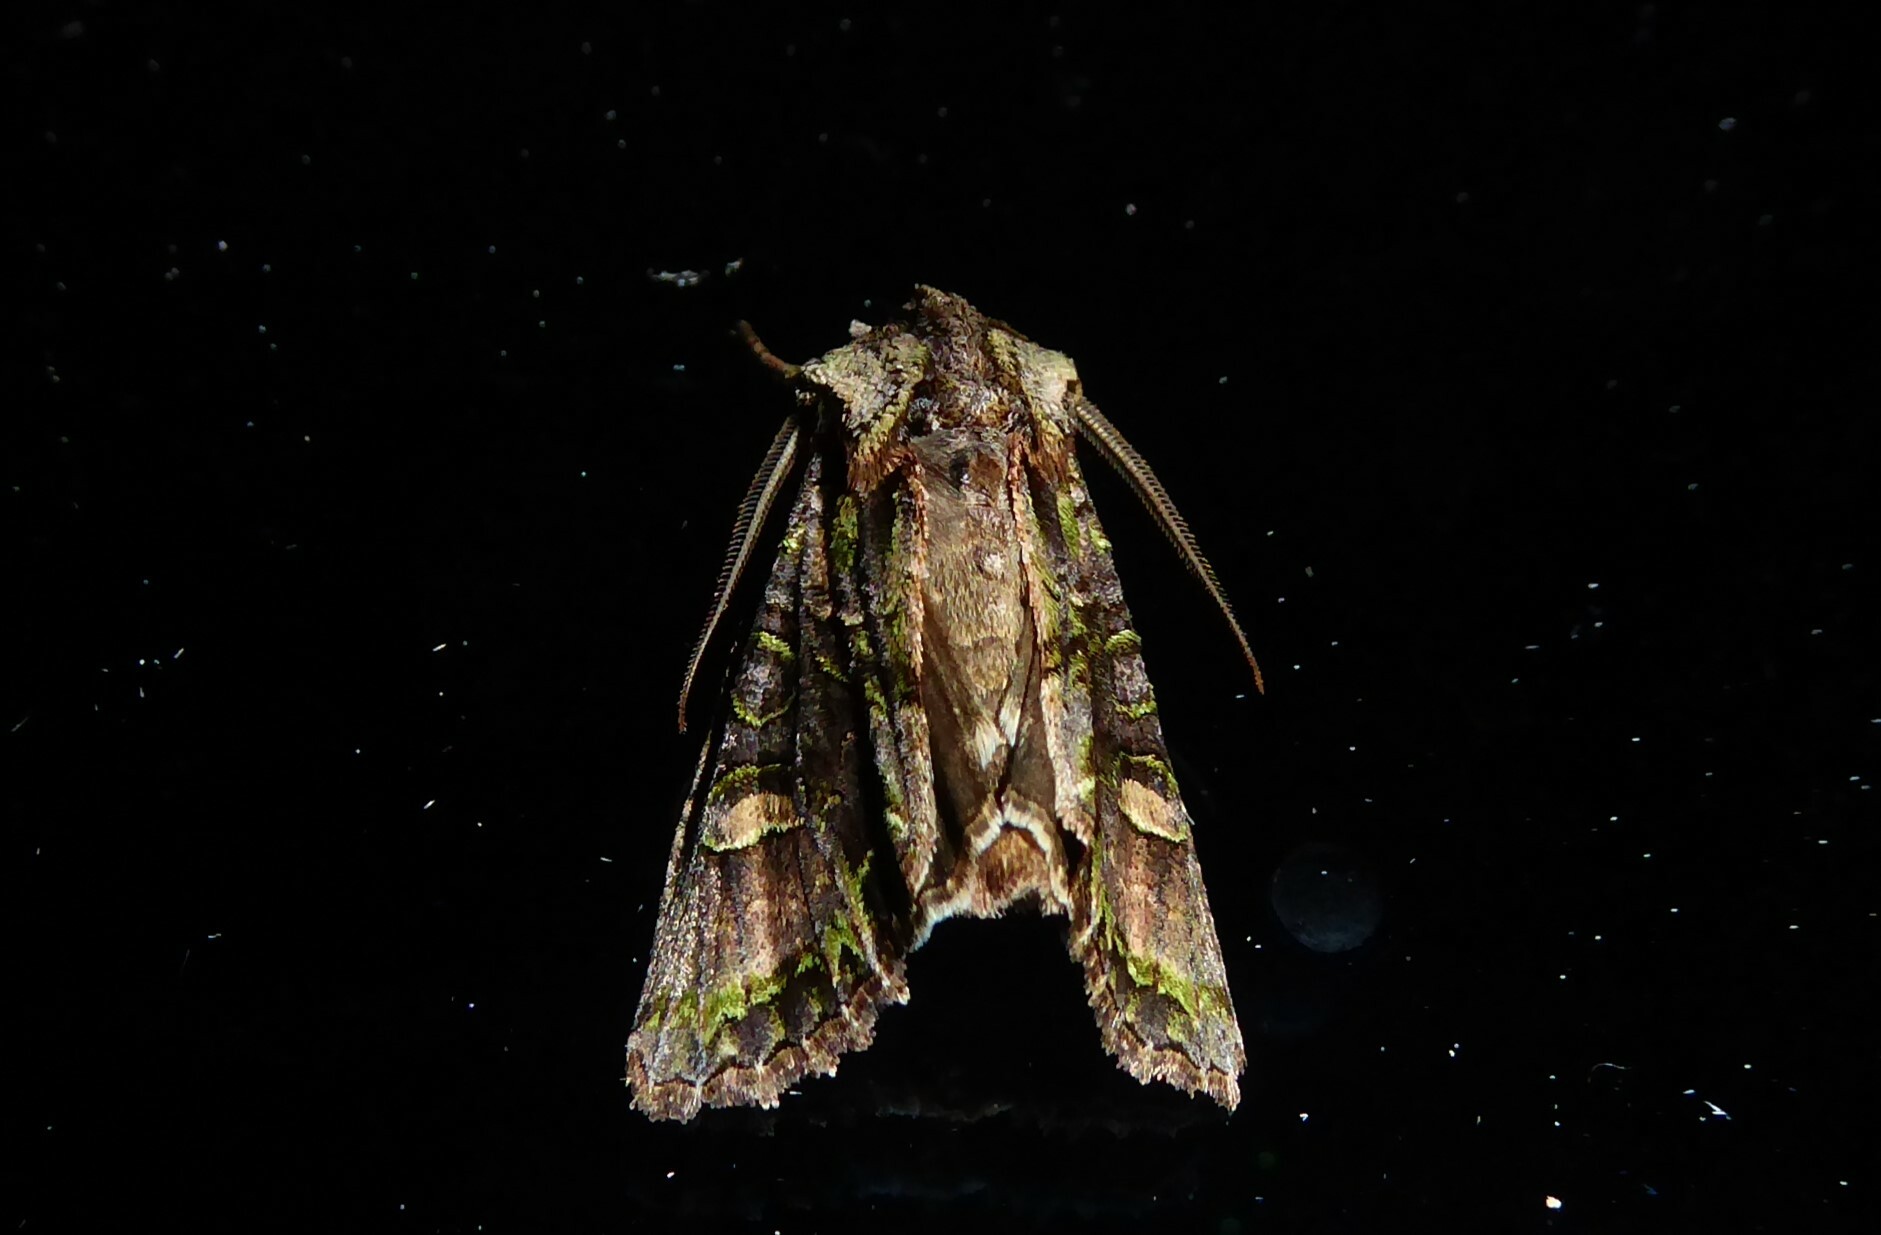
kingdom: Animalia
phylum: Arthropoda
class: Insecta
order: Lepidoptera
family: Noctuidae
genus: Ichneutica
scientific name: Ichneutica insignis
